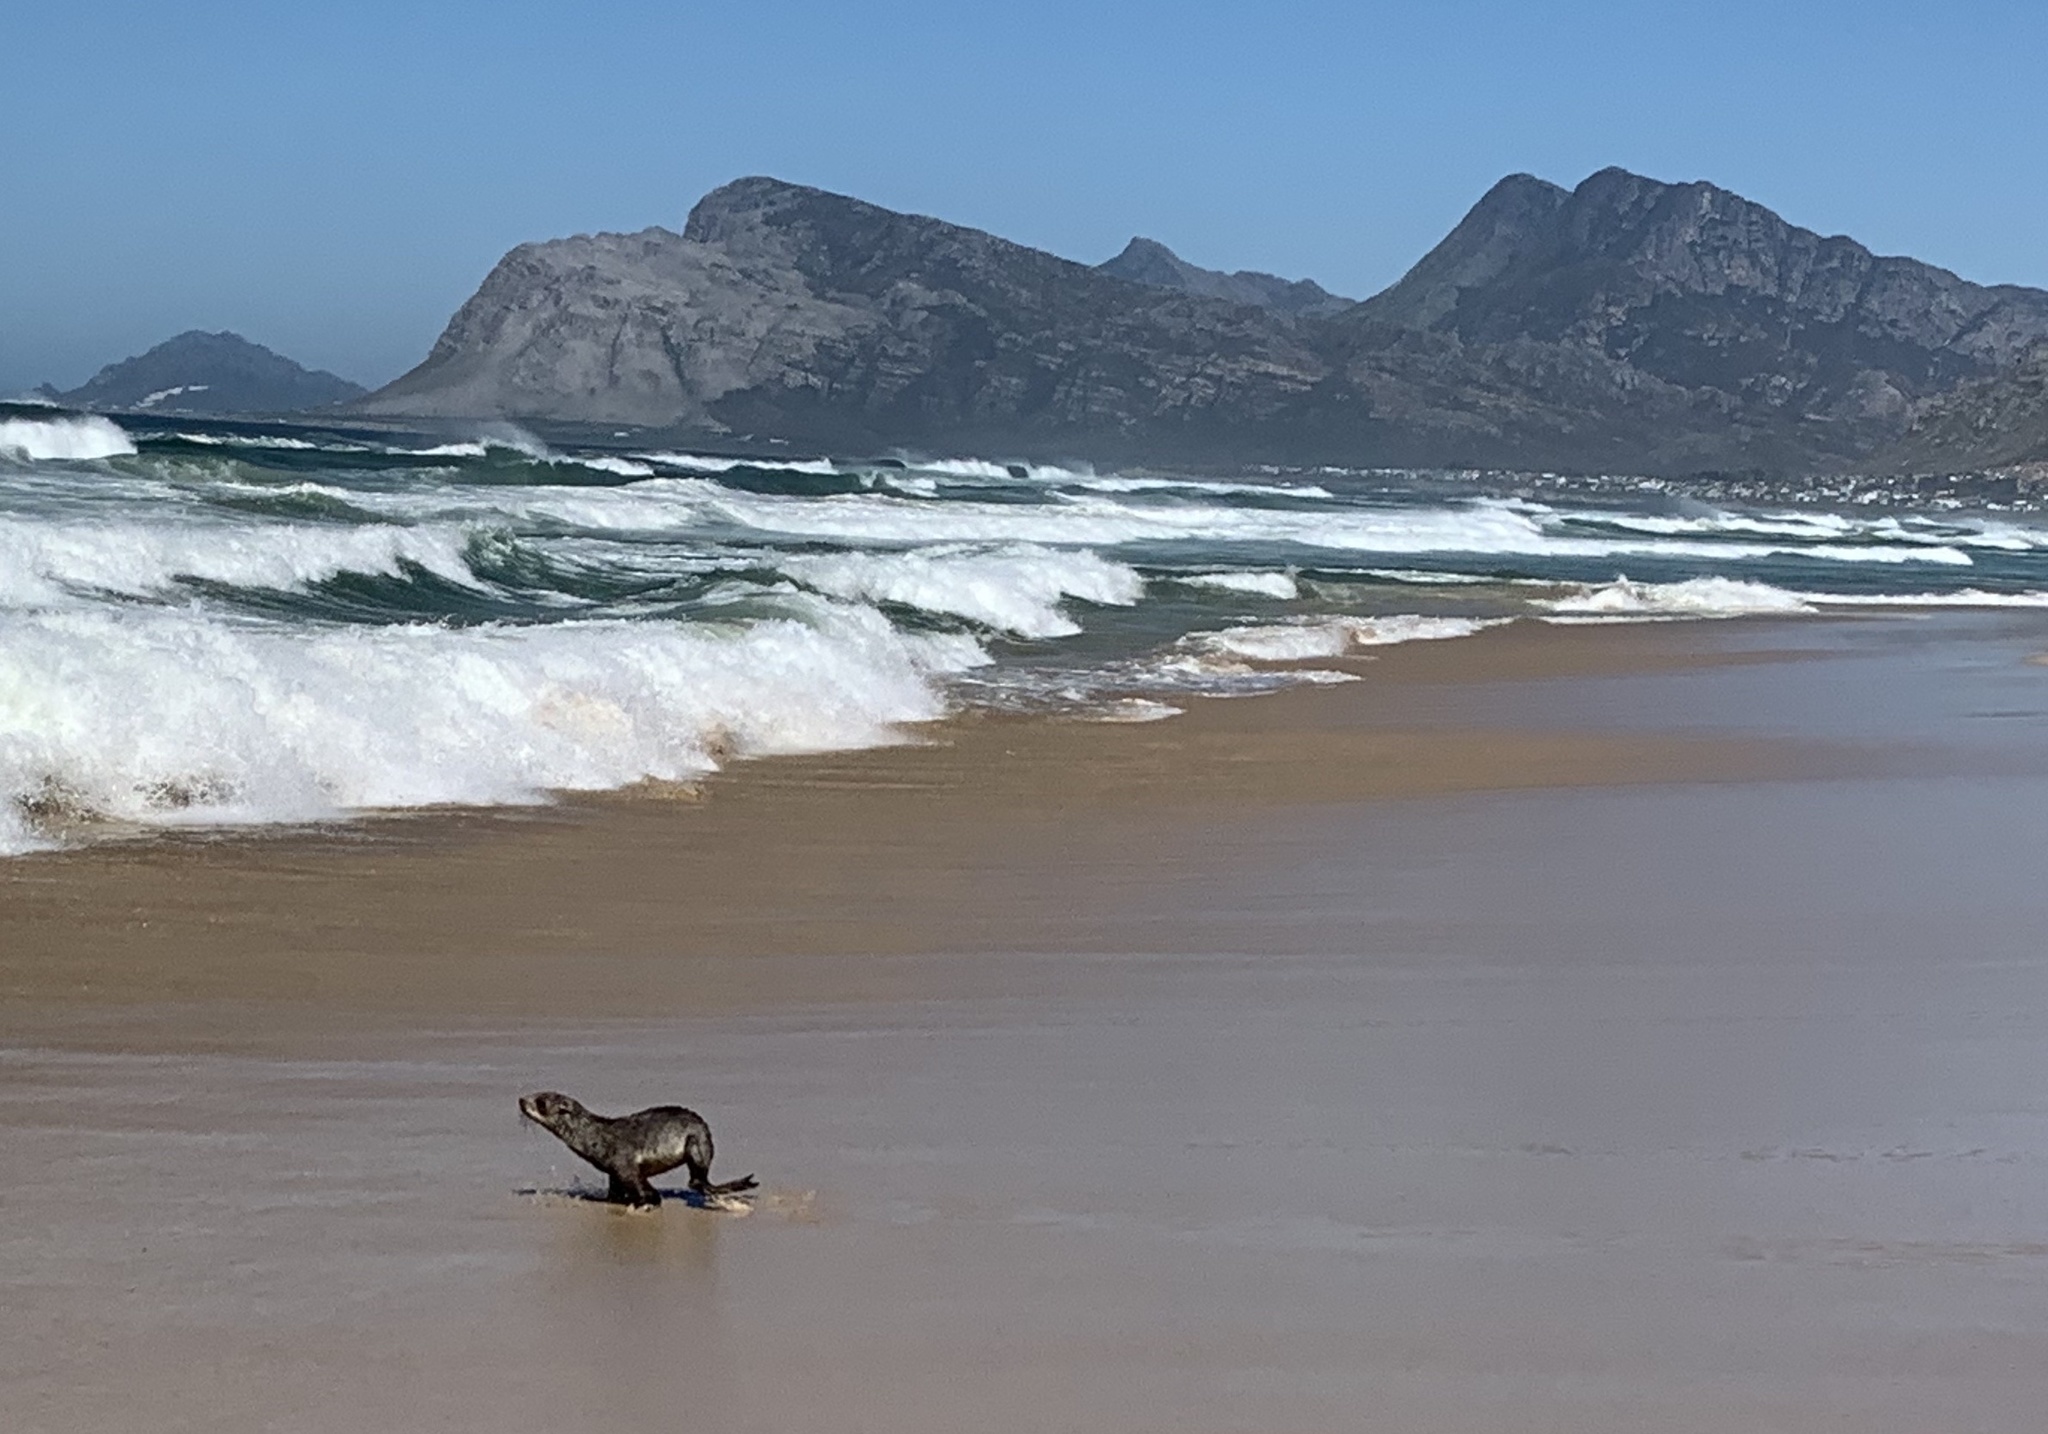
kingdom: Animalia
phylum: Chordata
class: Mammalia
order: Carnivora
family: Otariidae
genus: Arctocephalus
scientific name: Arctocephalus pusillus
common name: Brown fur seal
